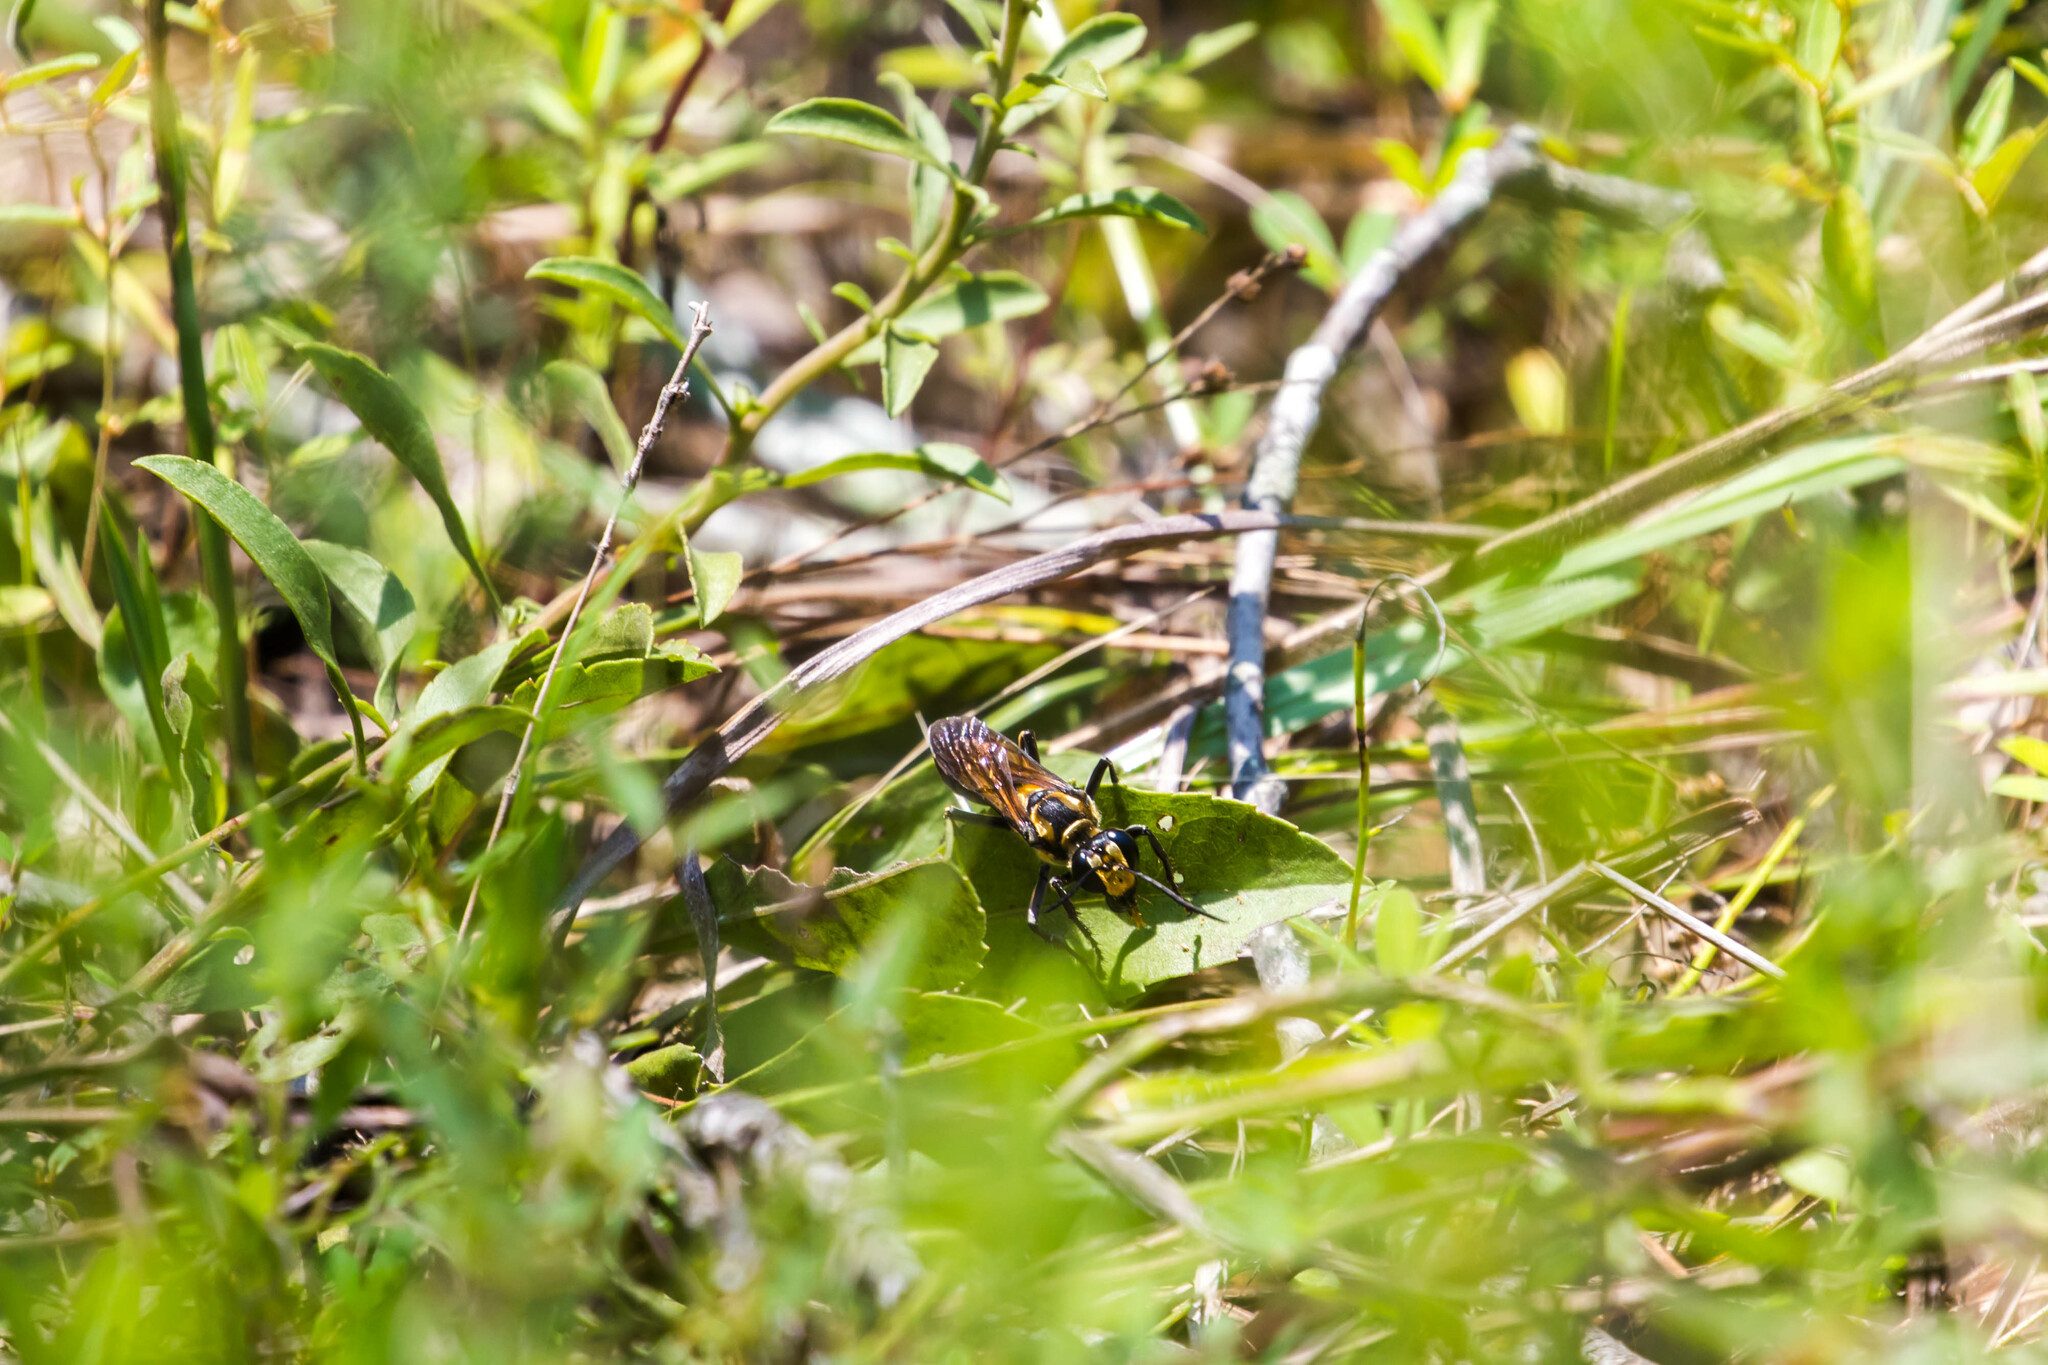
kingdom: Animalia
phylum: Arthropoda
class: Insecta
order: Hymenoptera
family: Sphecidae
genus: Sphex
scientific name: Sphex habenus
